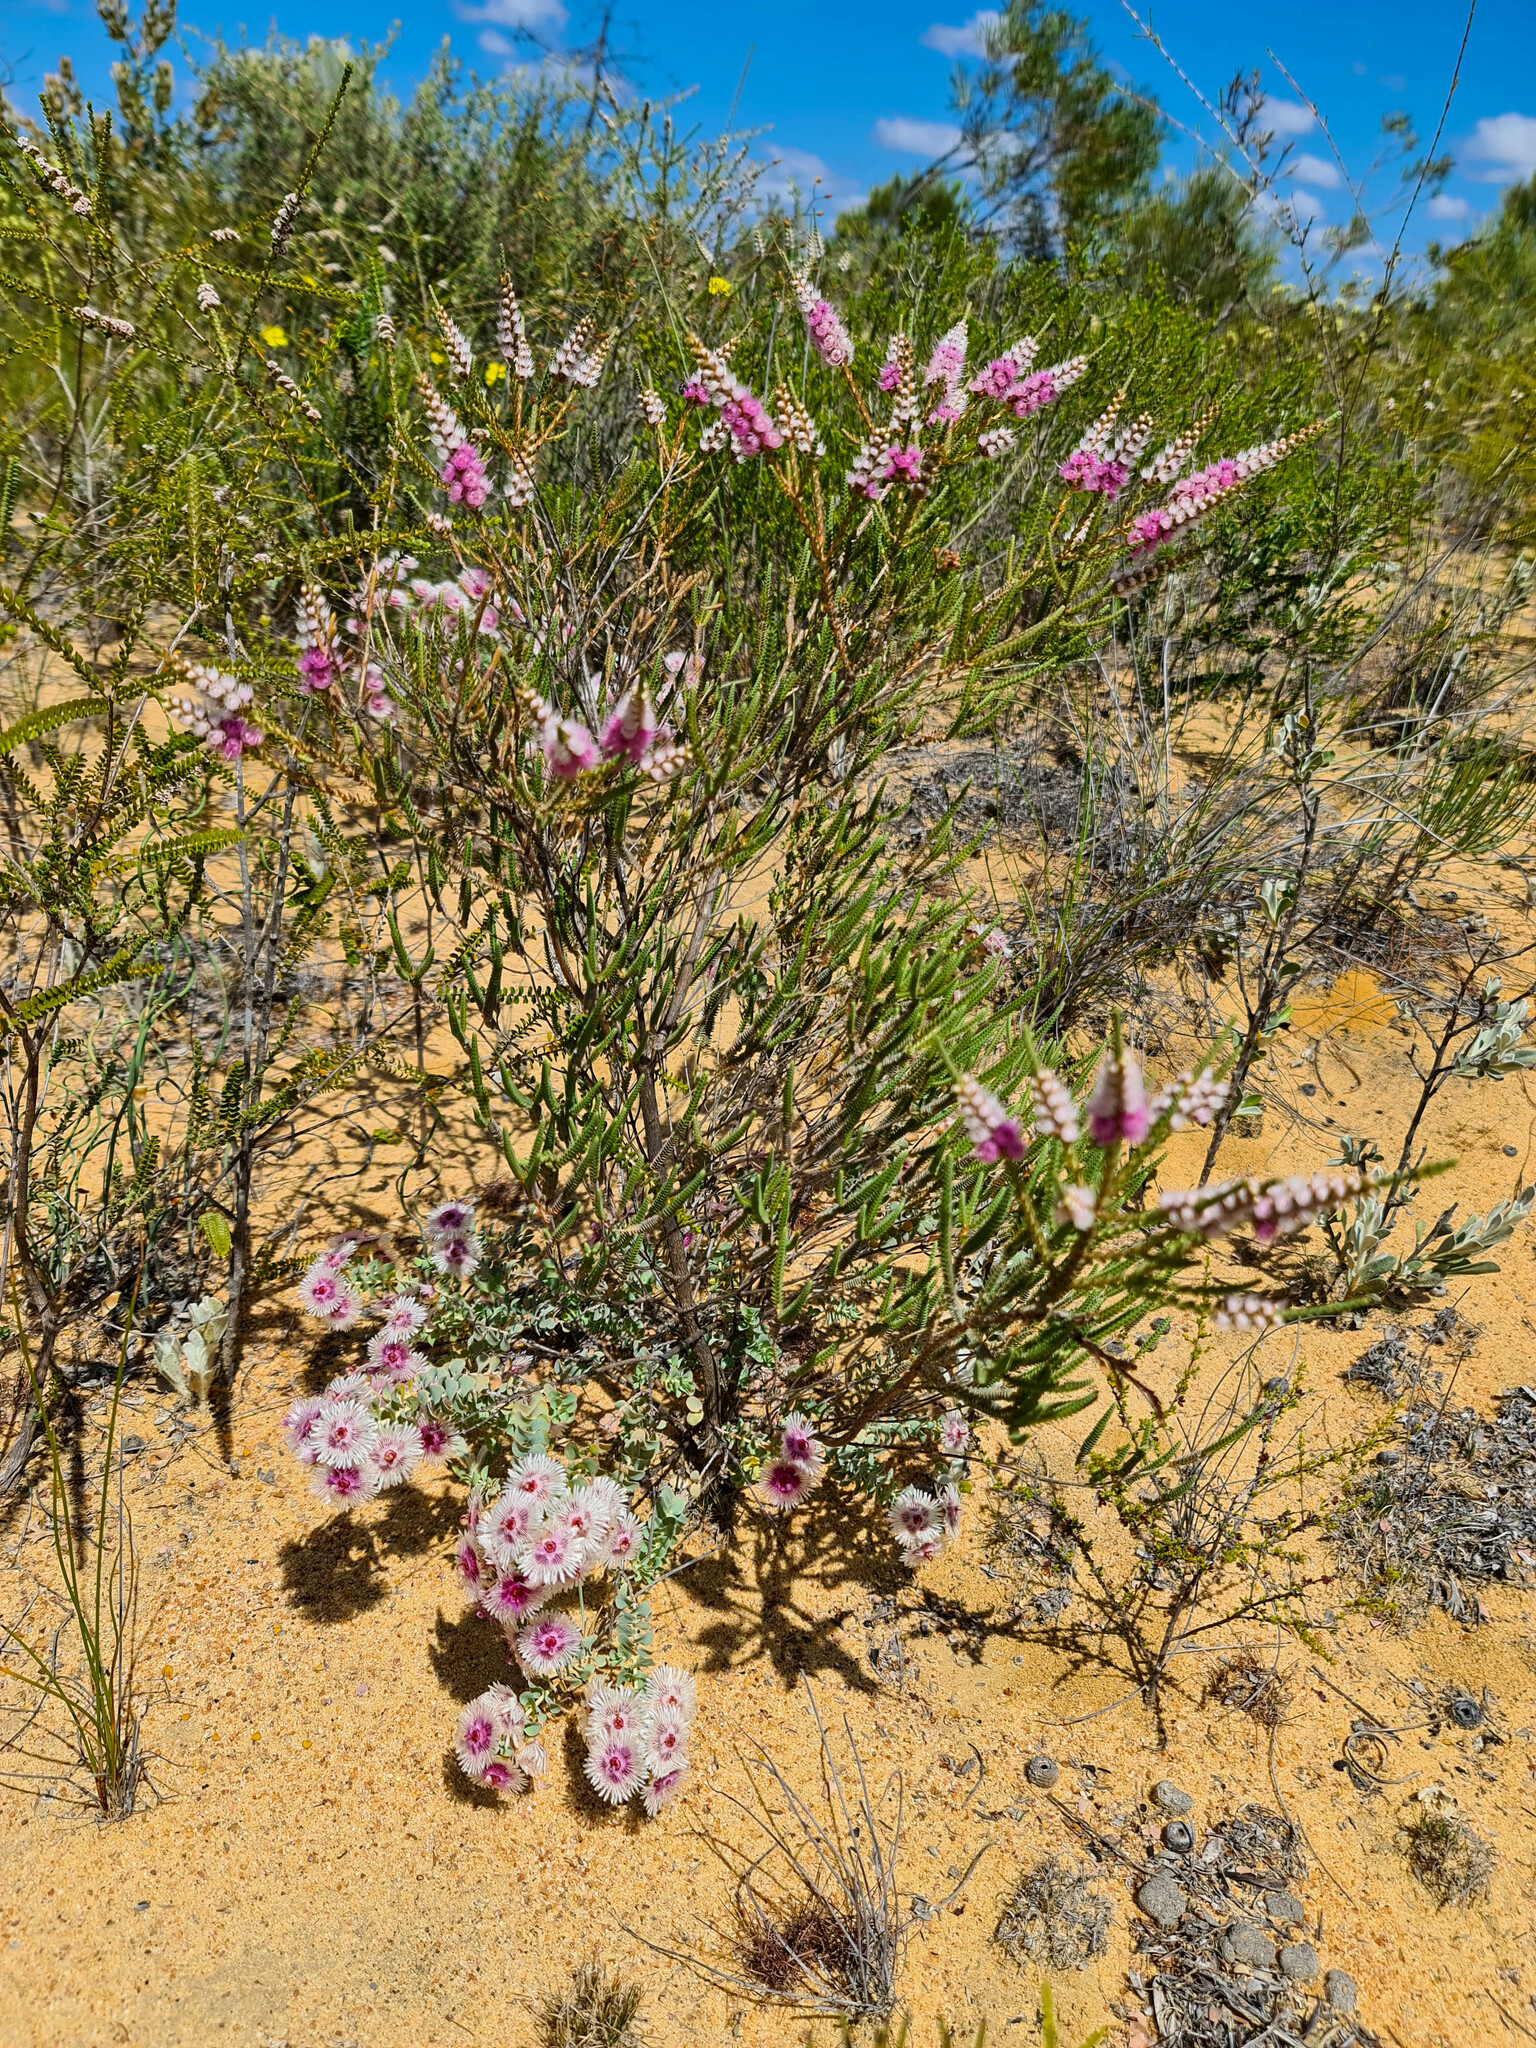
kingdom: Plantae
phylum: Tracheophyta
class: Magnoliopsida
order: Myrtales
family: Myrtaceae
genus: Verticordia
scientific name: Verticordia spicata
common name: Spike feather-flower
